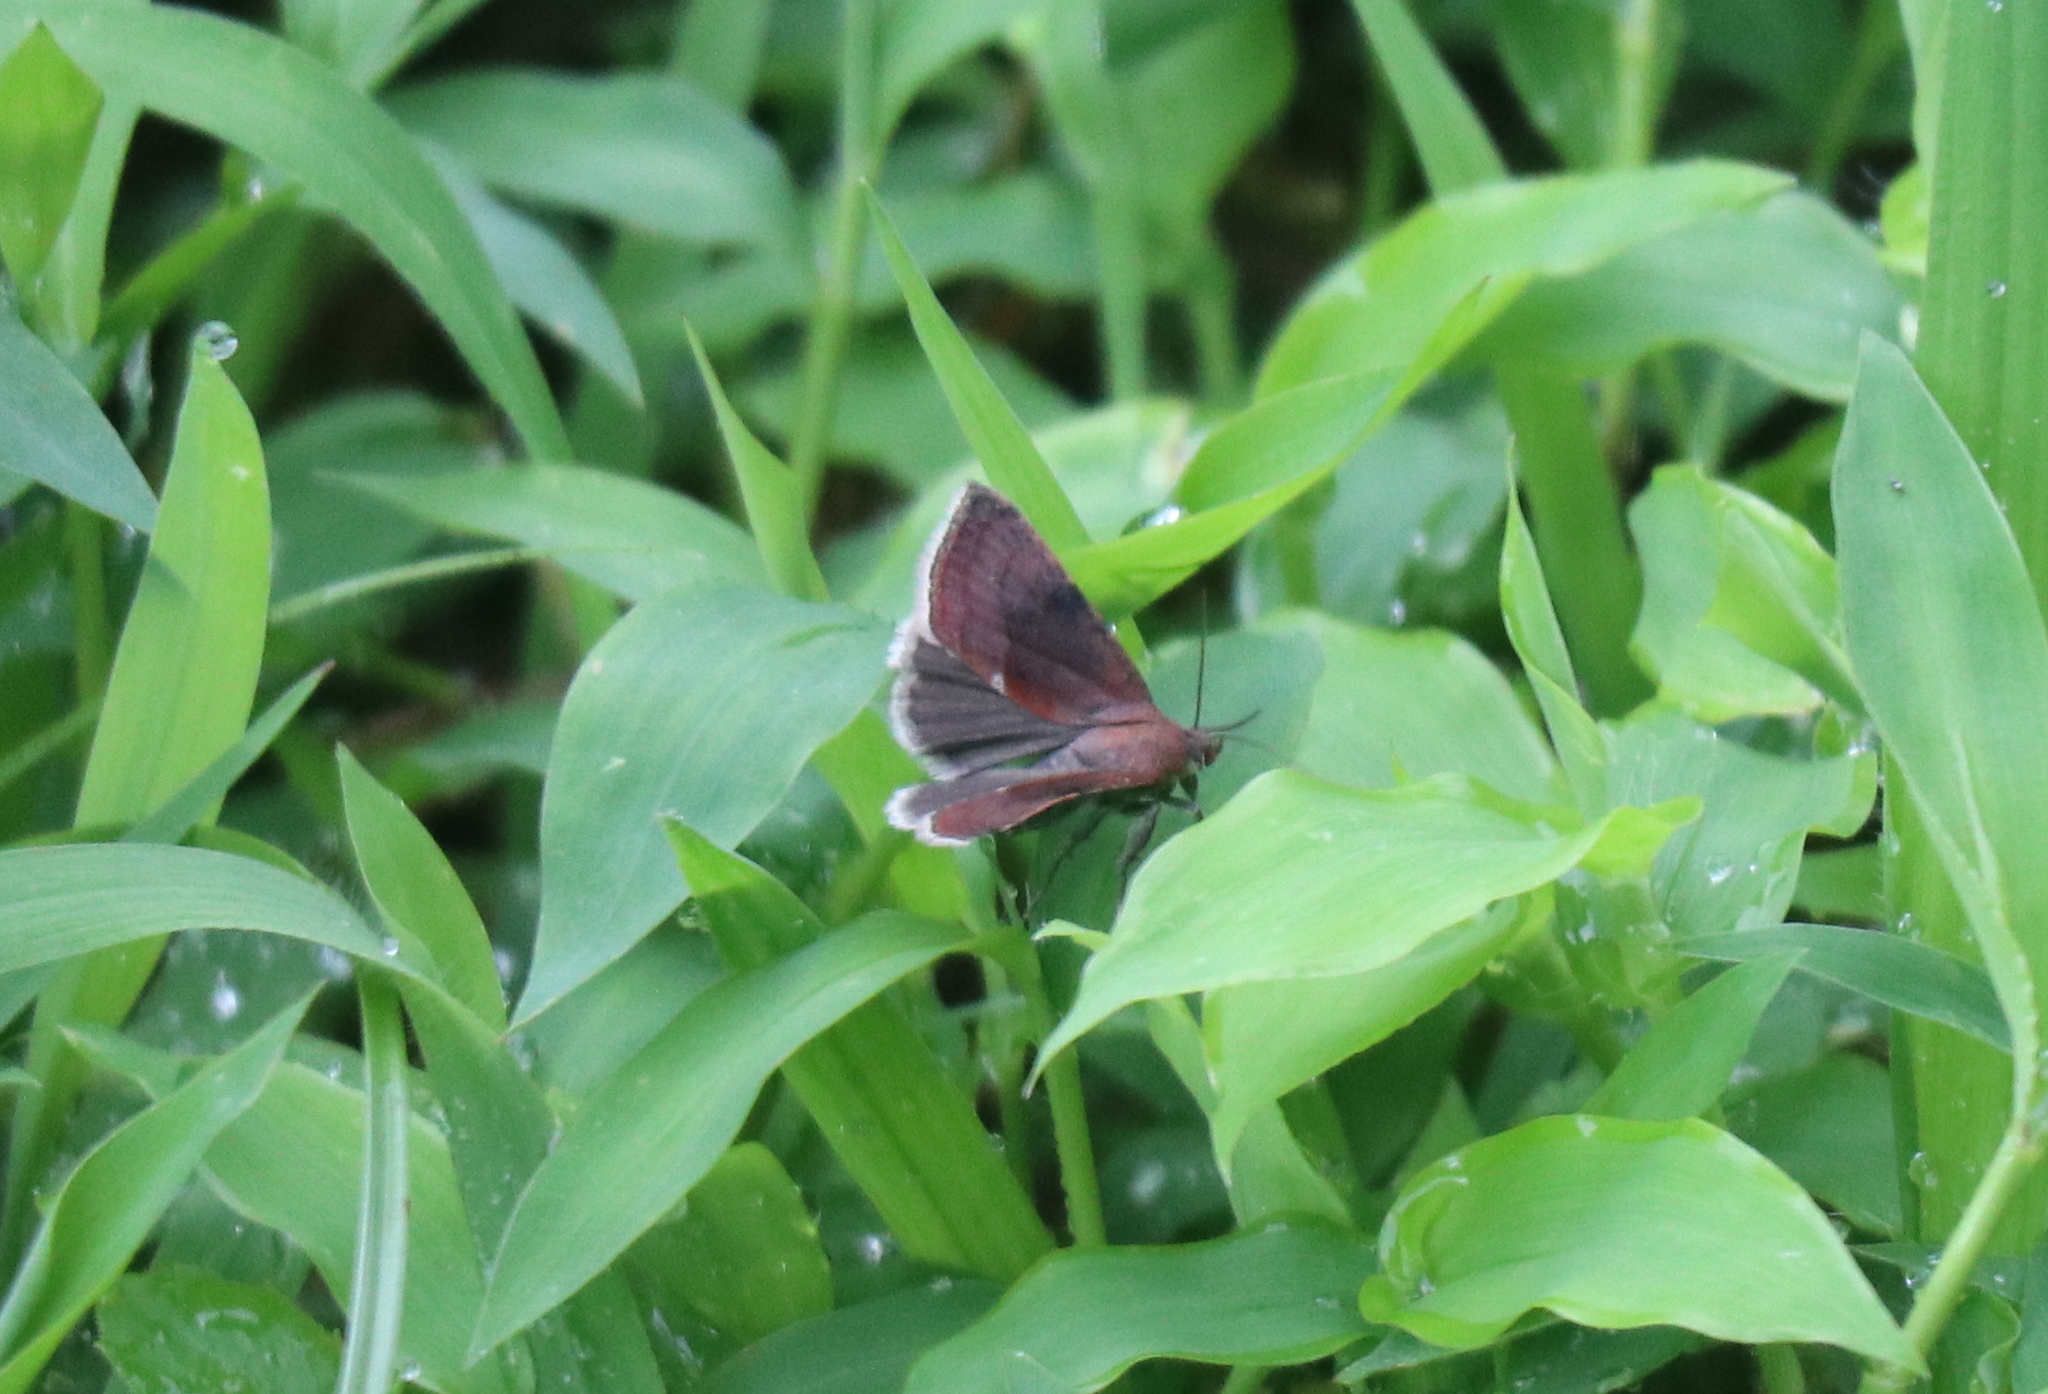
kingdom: Animalia
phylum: Arthropoda
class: Insecta
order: Lepidoptera
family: Noctuidae
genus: Galgula
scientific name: Galgula partita
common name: Wedgeling
